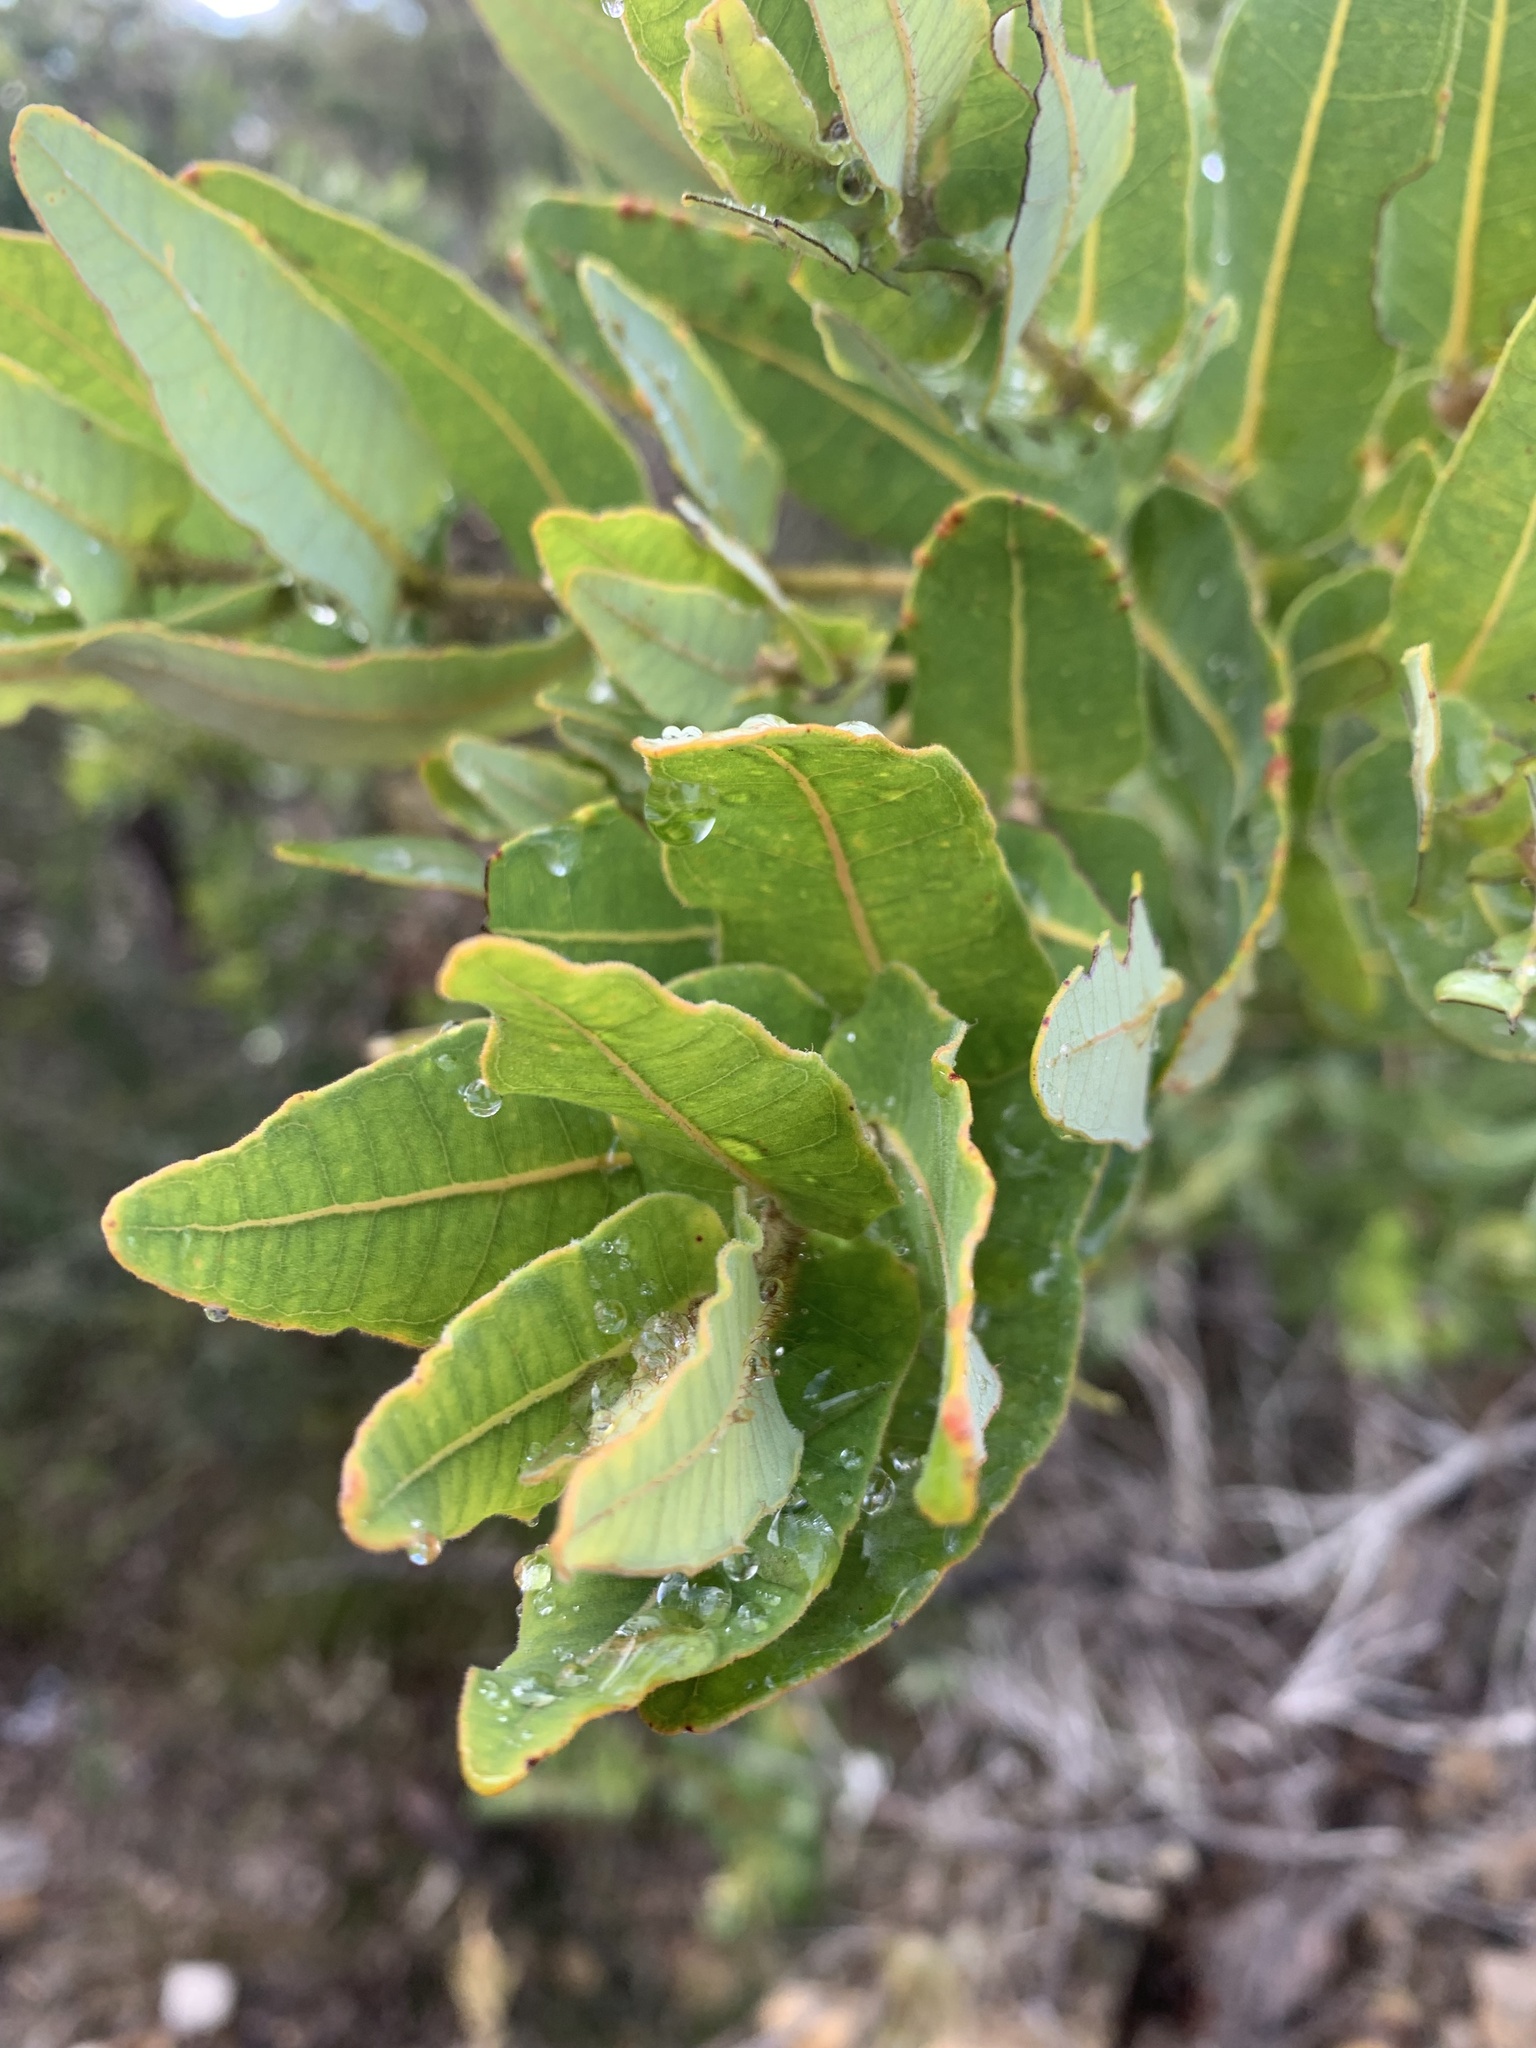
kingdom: Plantae
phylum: Tracheophyta
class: Magnoliopsida
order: Myrtales
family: Myrtaceae
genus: Angophora
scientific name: Angophora hispida
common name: Dwarf-apple
